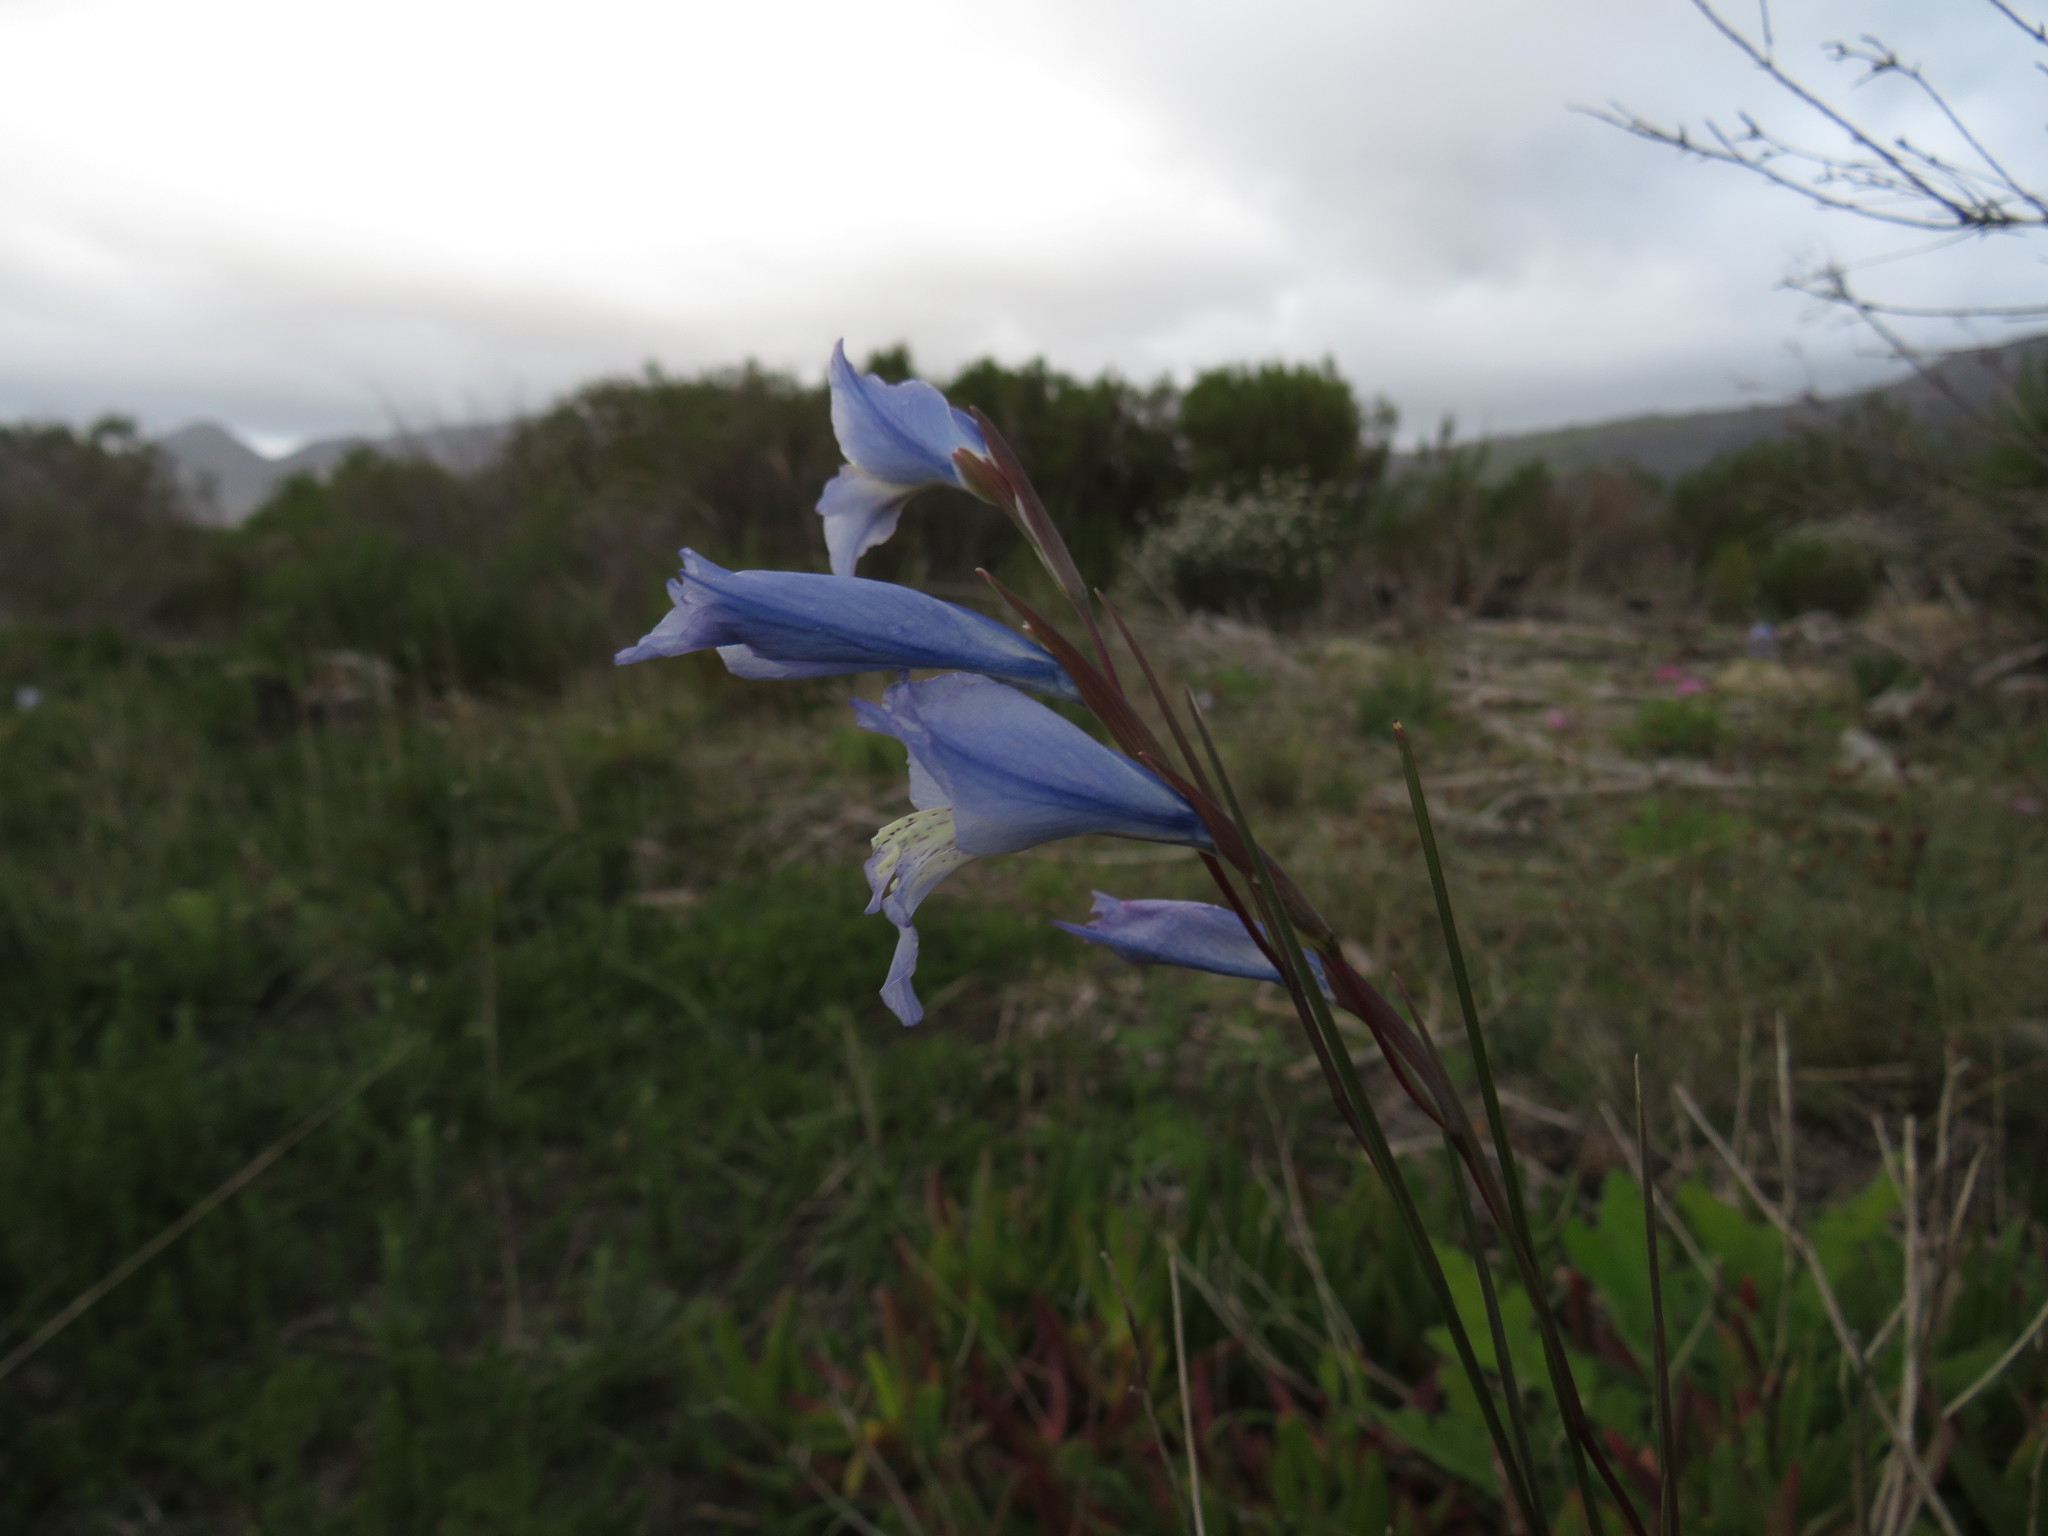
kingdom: Plantae
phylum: Tracheophyta
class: Liliopsida
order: Asparagales
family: Iridaceae
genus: Gladiolus
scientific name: Gladiolus gracilis
